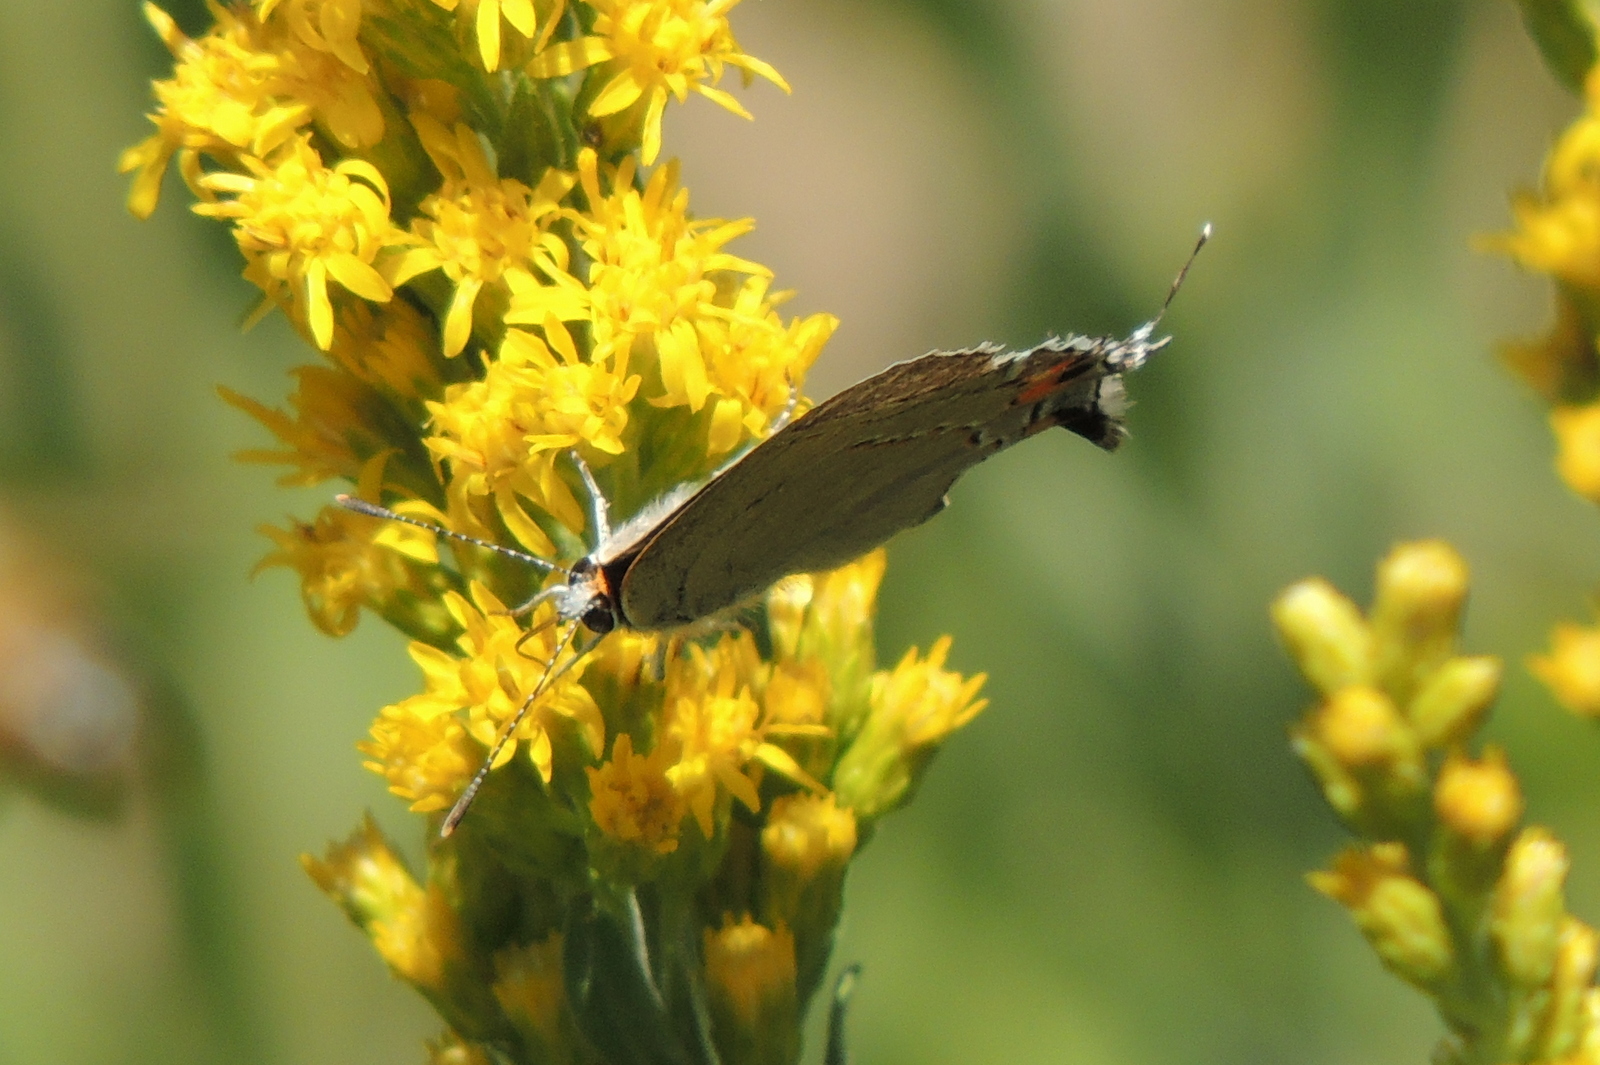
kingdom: Animalia
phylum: Arthropoda
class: Insecta
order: Lepidoptera
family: Lycaenidae
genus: Strymon
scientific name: Strymon melinus
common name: Gray hairstreak
